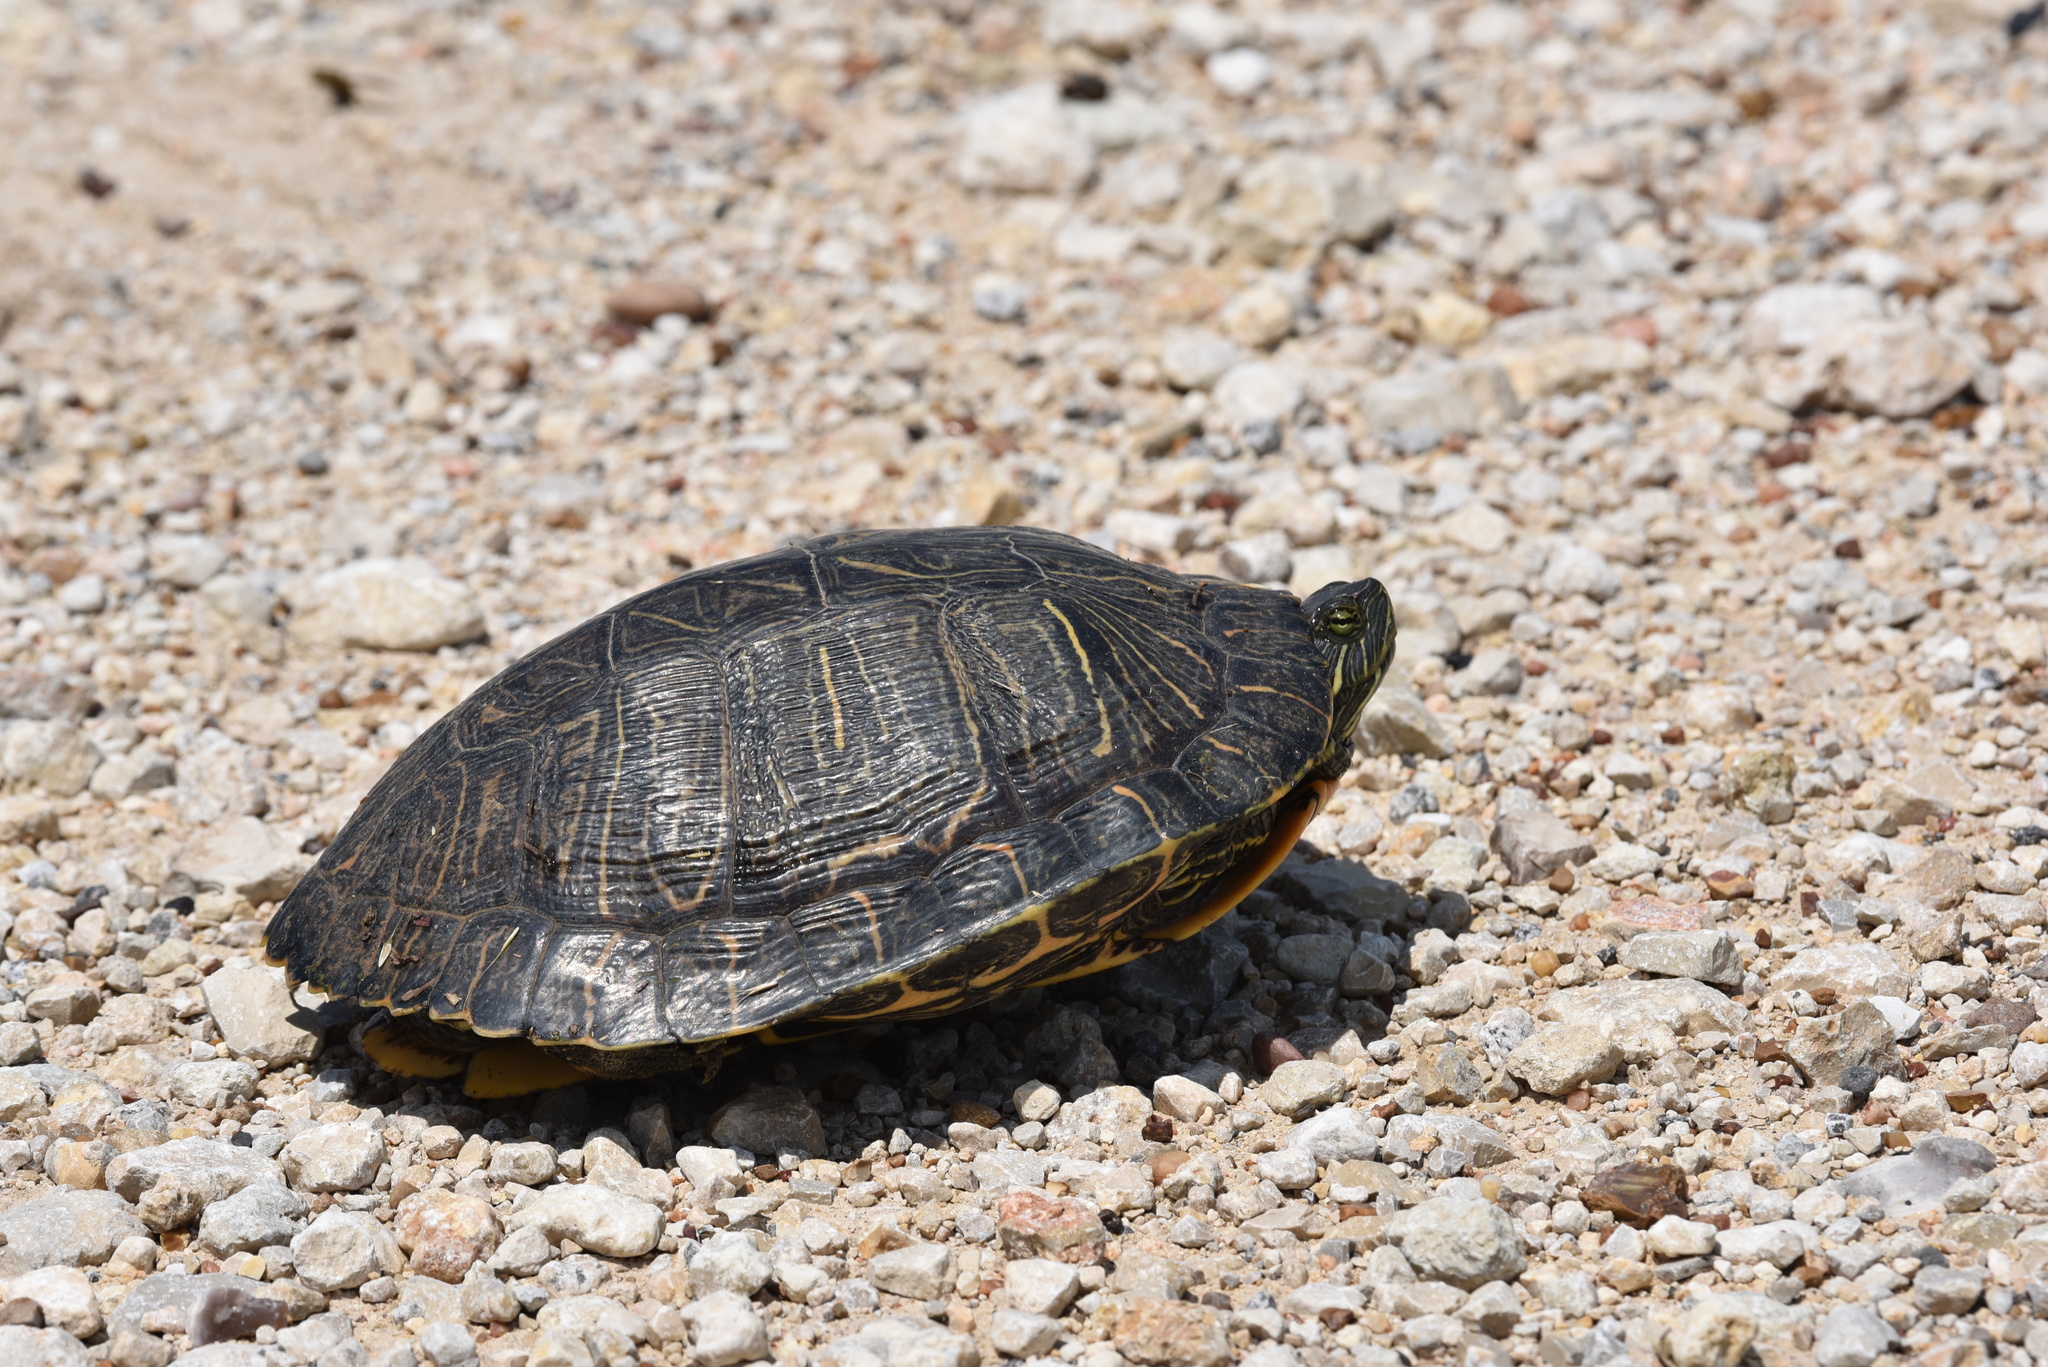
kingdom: Animalia
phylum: Chordata
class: Testudines
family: Emydidae
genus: Trachemys
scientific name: Trachemys scripta
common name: Slider
